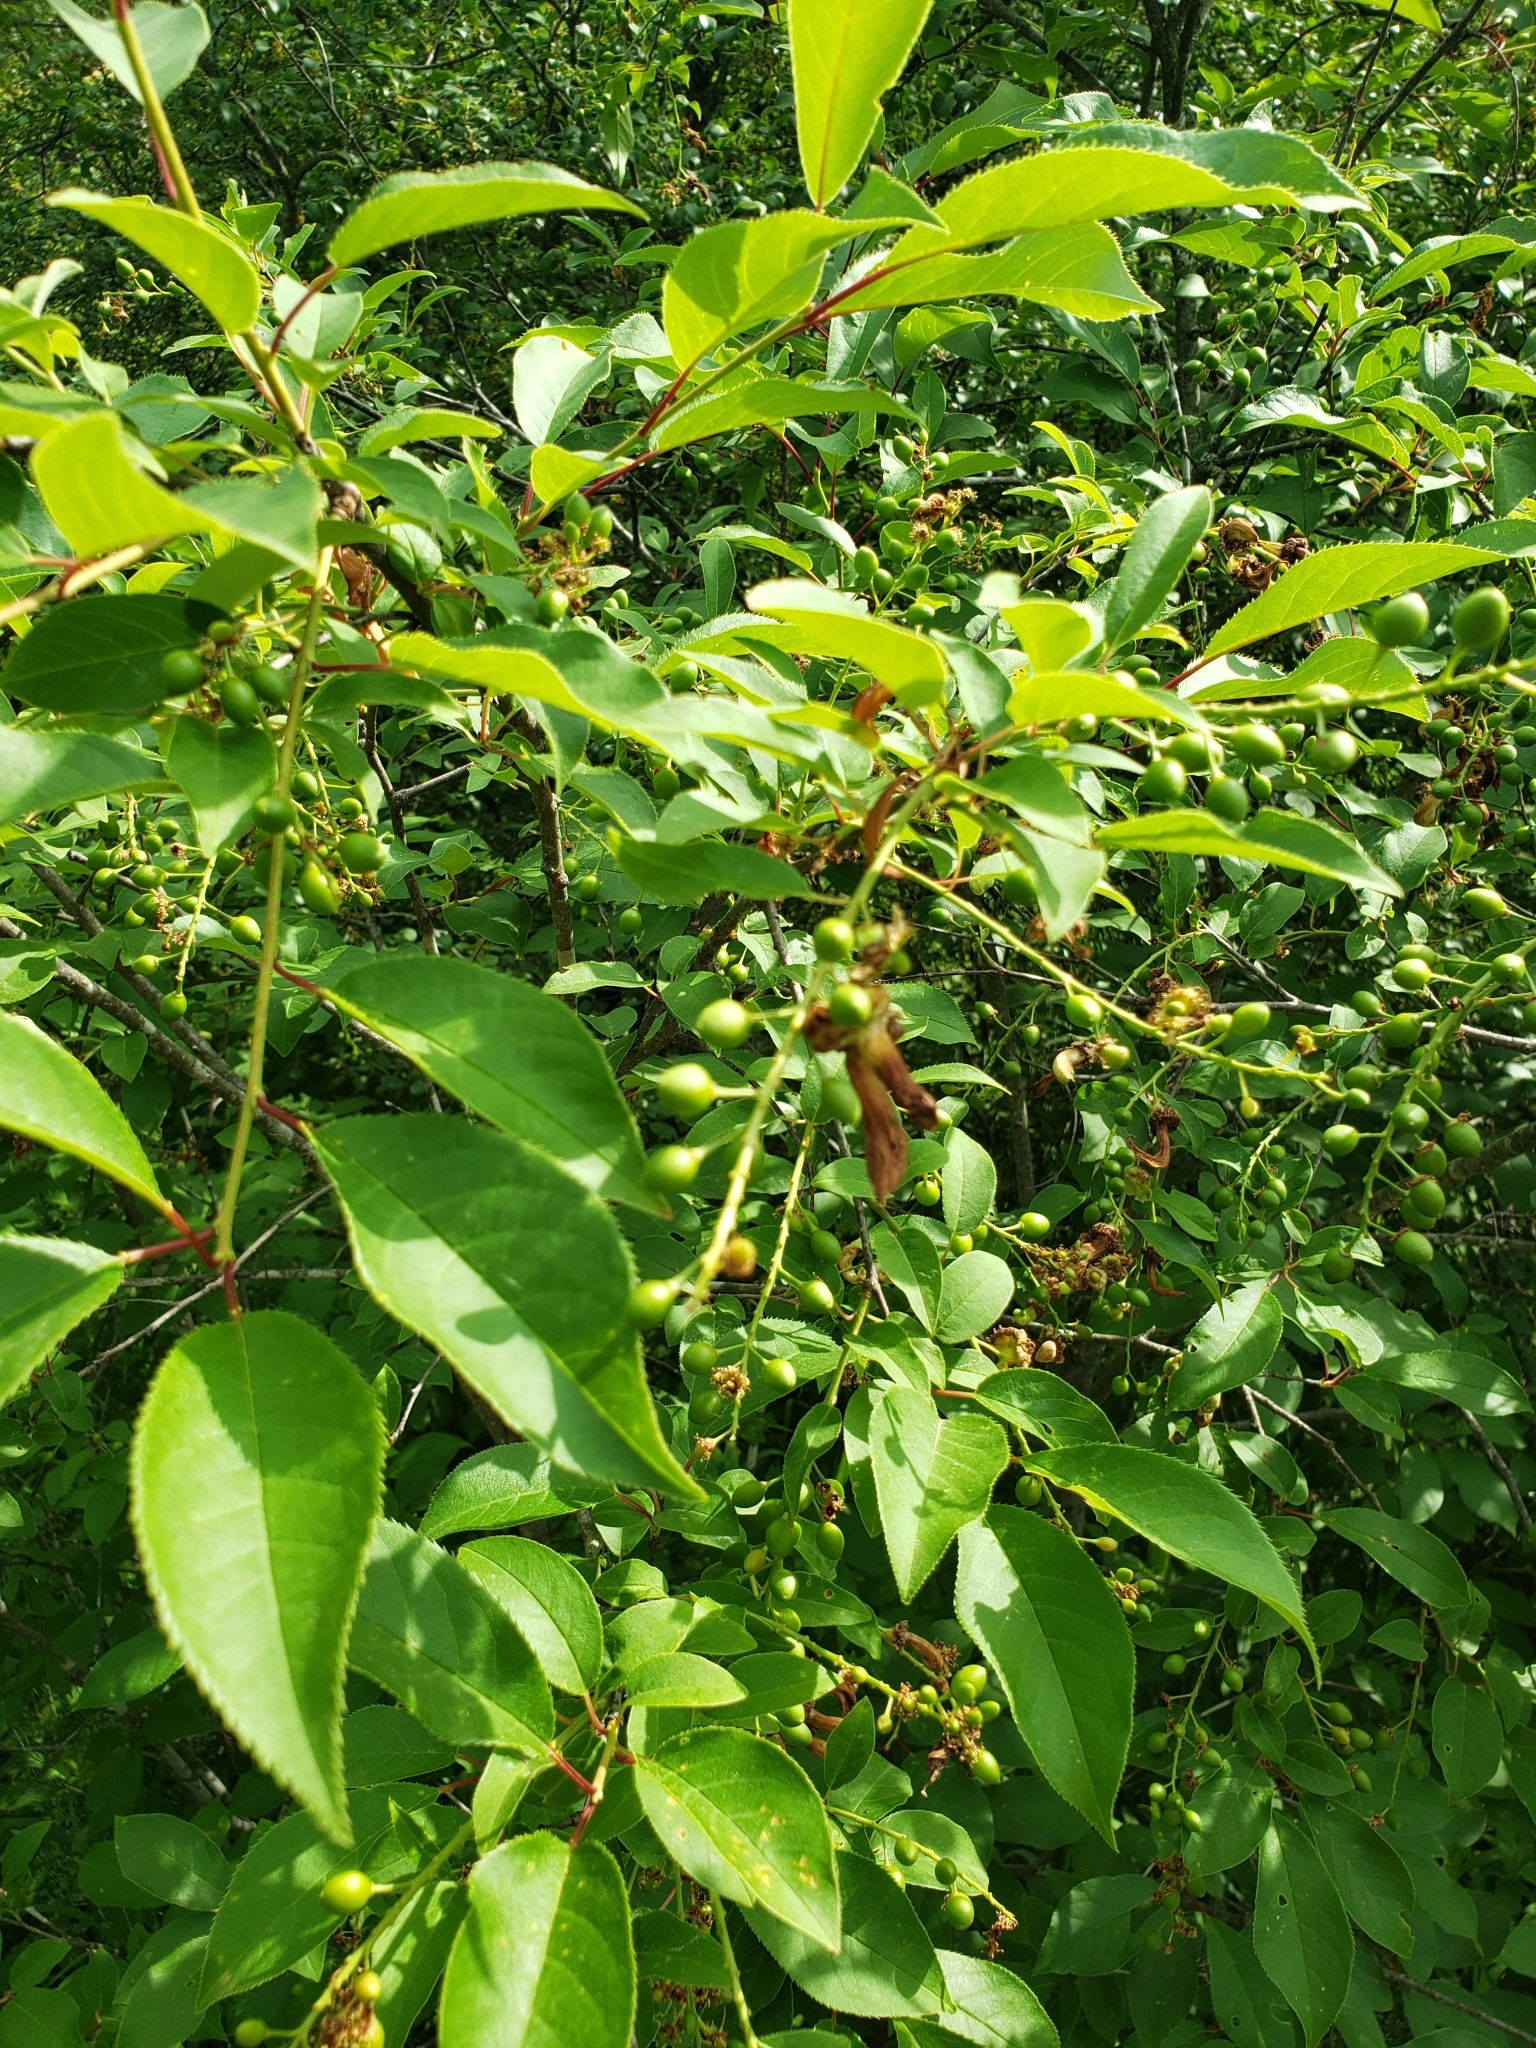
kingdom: Plantae
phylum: Tracheophyta
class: Magnoliopsida
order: Rosales
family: Rosaceae
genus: Prunus
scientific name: Prunus virginiana
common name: Chokecherry
